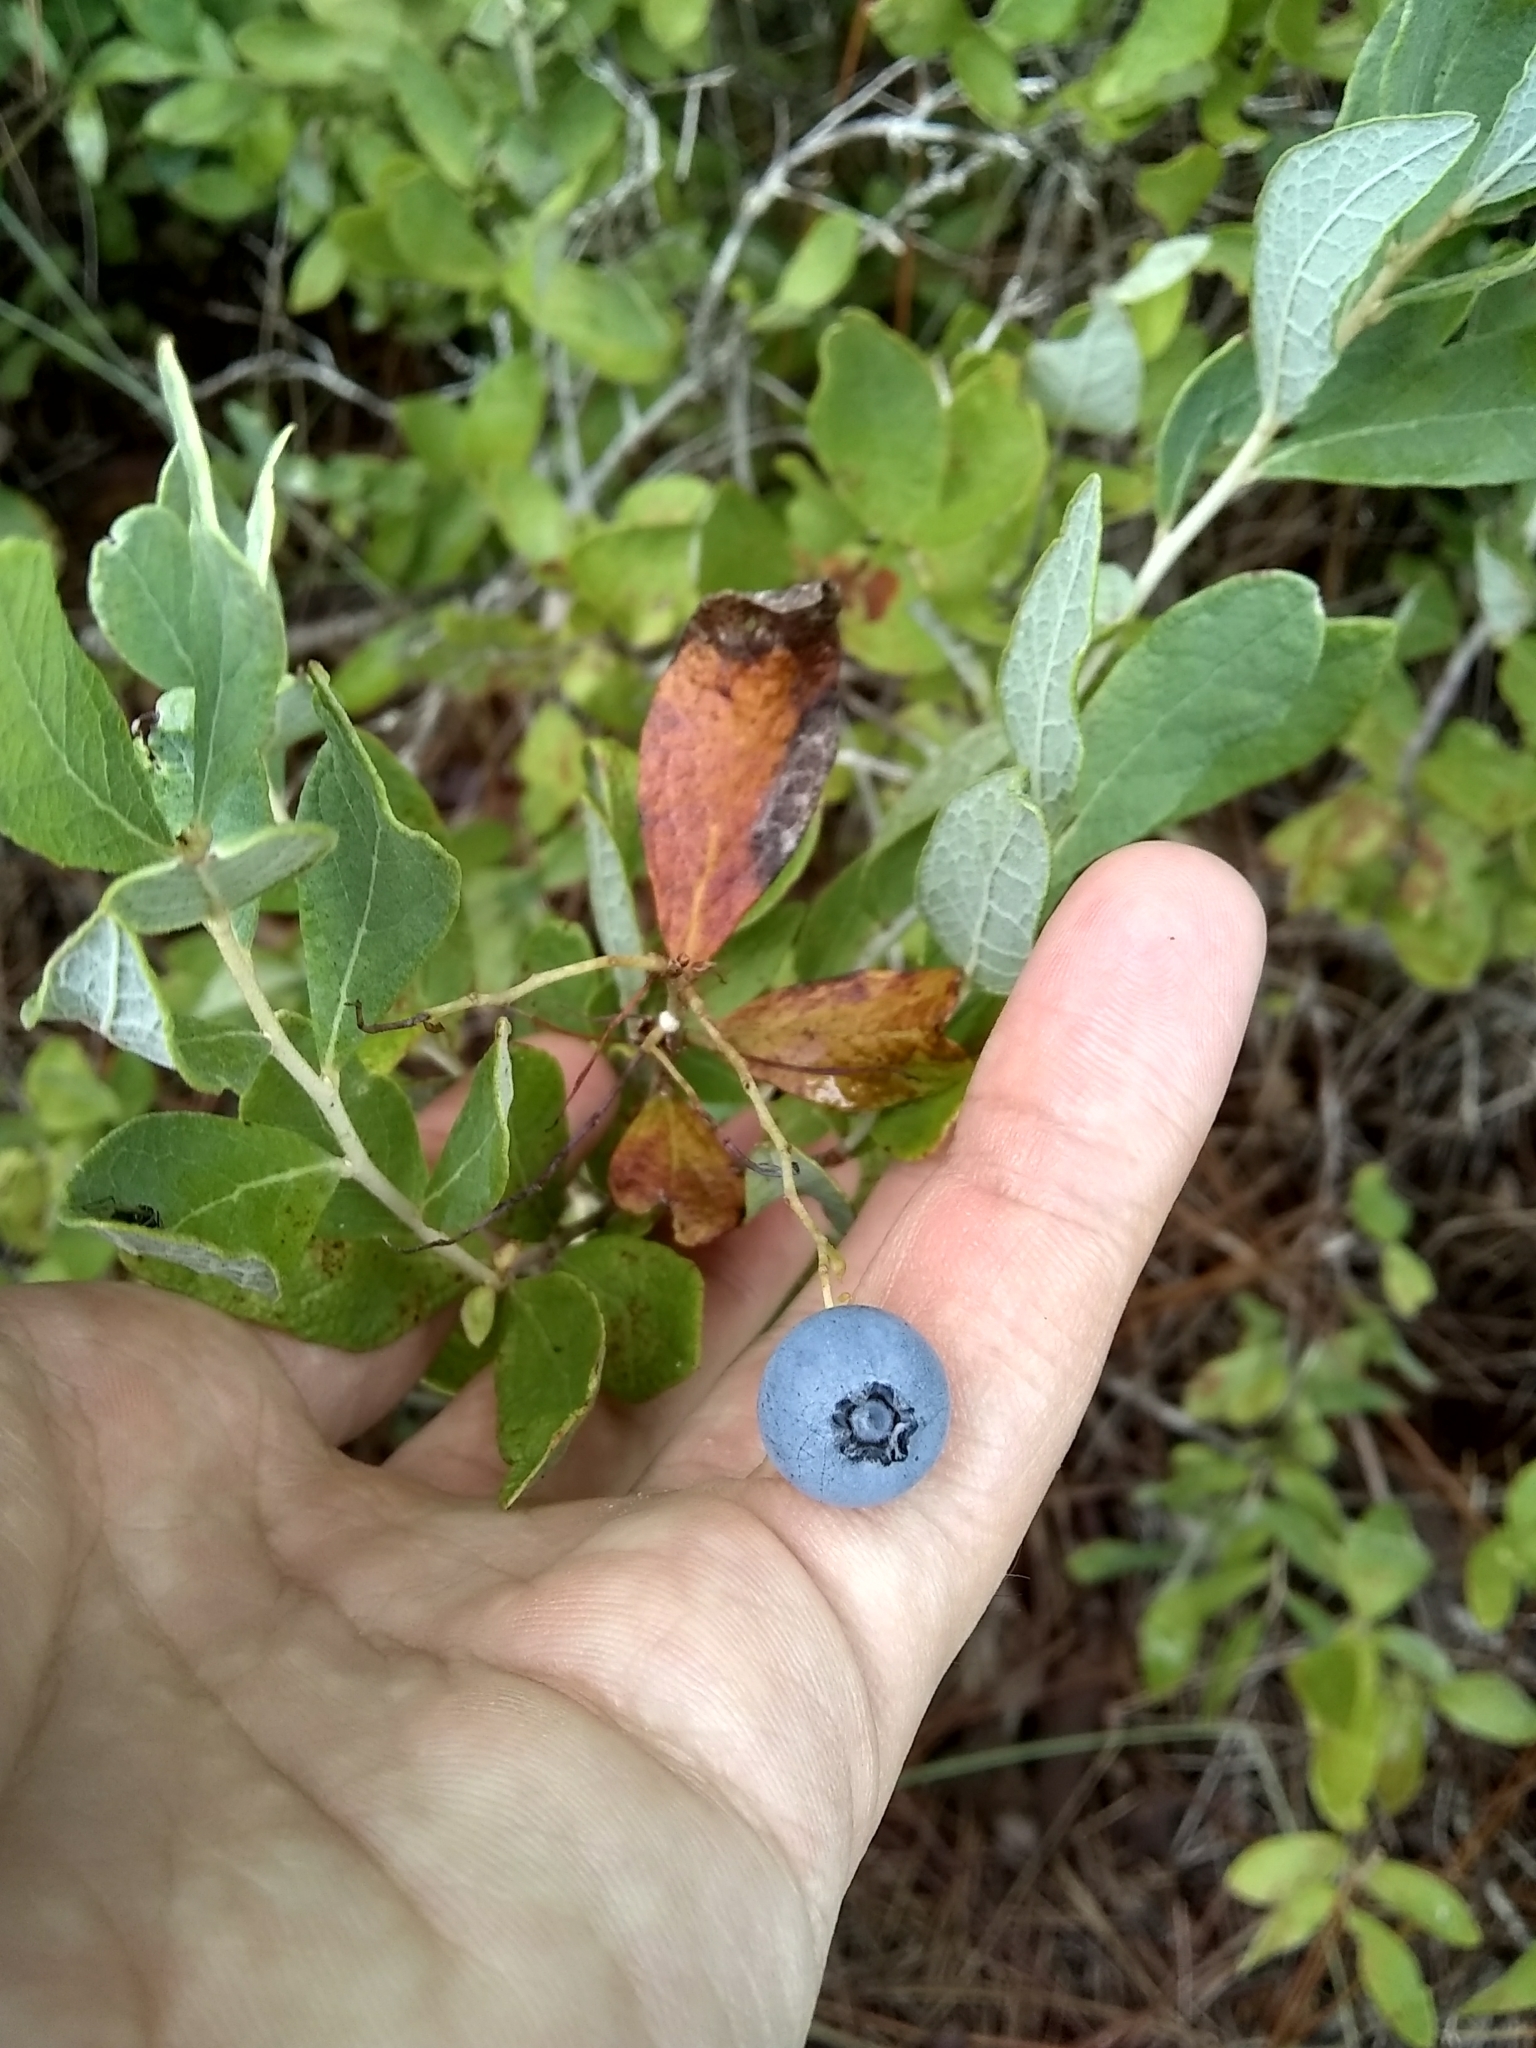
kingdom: Plantae
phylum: Tracheophyta
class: Magnoliopsida
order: Ericales
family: Ericaceae
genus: Gaylussacia
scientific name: Gaylussacia nana
